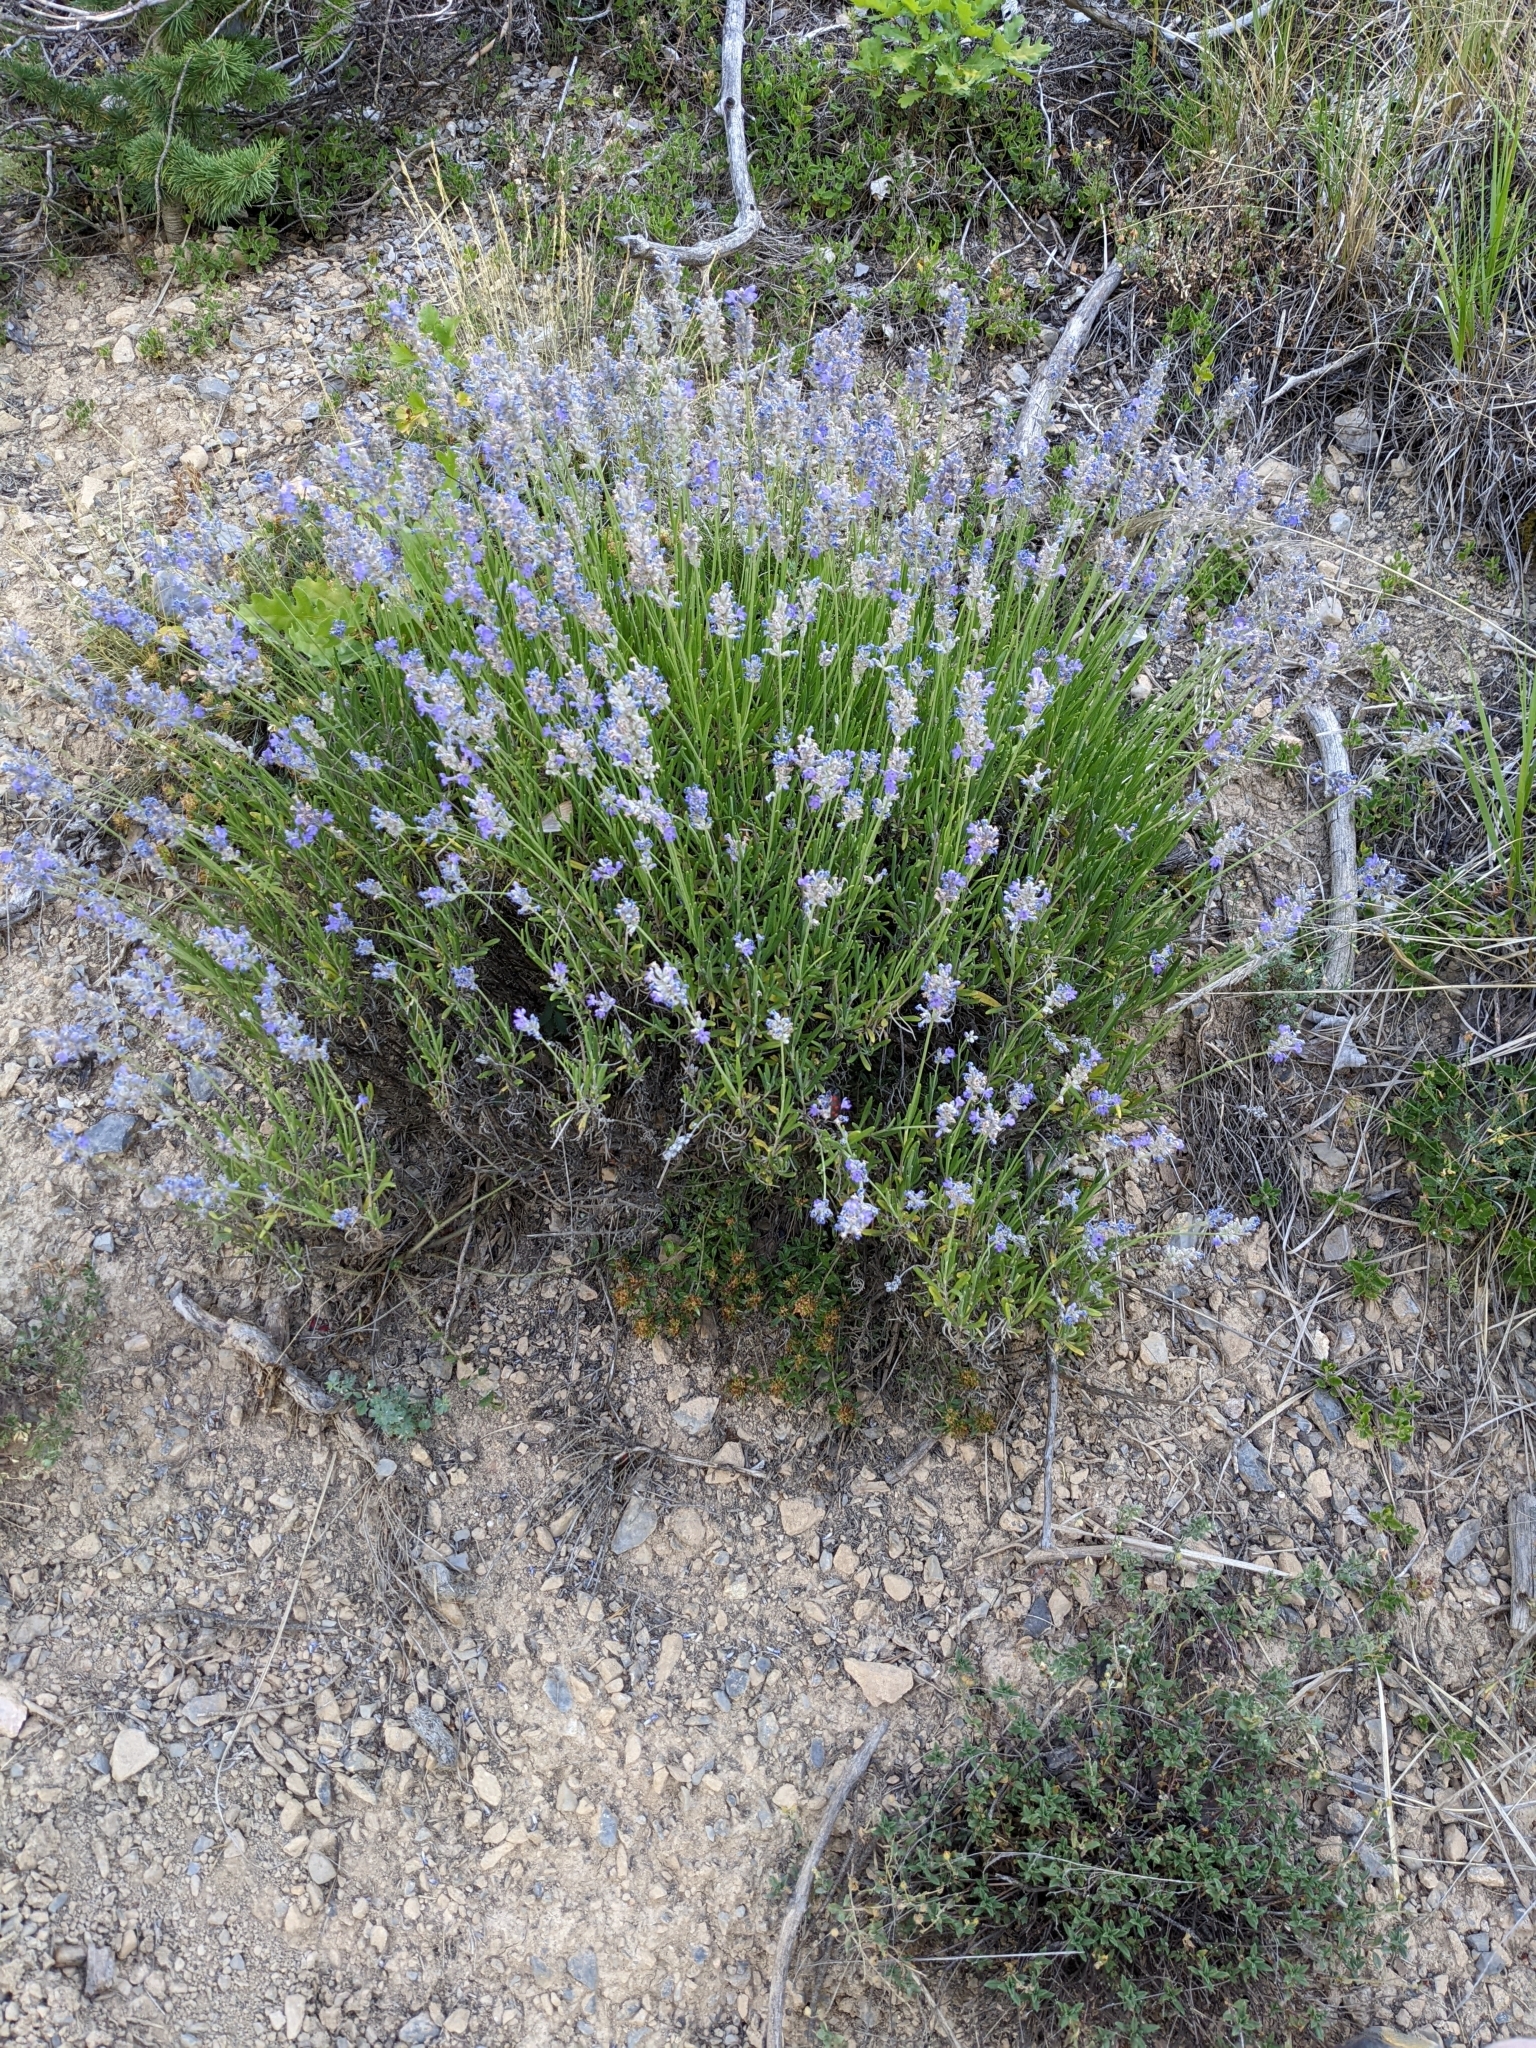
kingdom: Plantae
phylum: Tracheophyta
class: Magnoliopsida
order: Lamiales
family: Lamiaceae
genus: Lavandula
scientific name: Lavandula angustifolia
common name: Garden lavender
